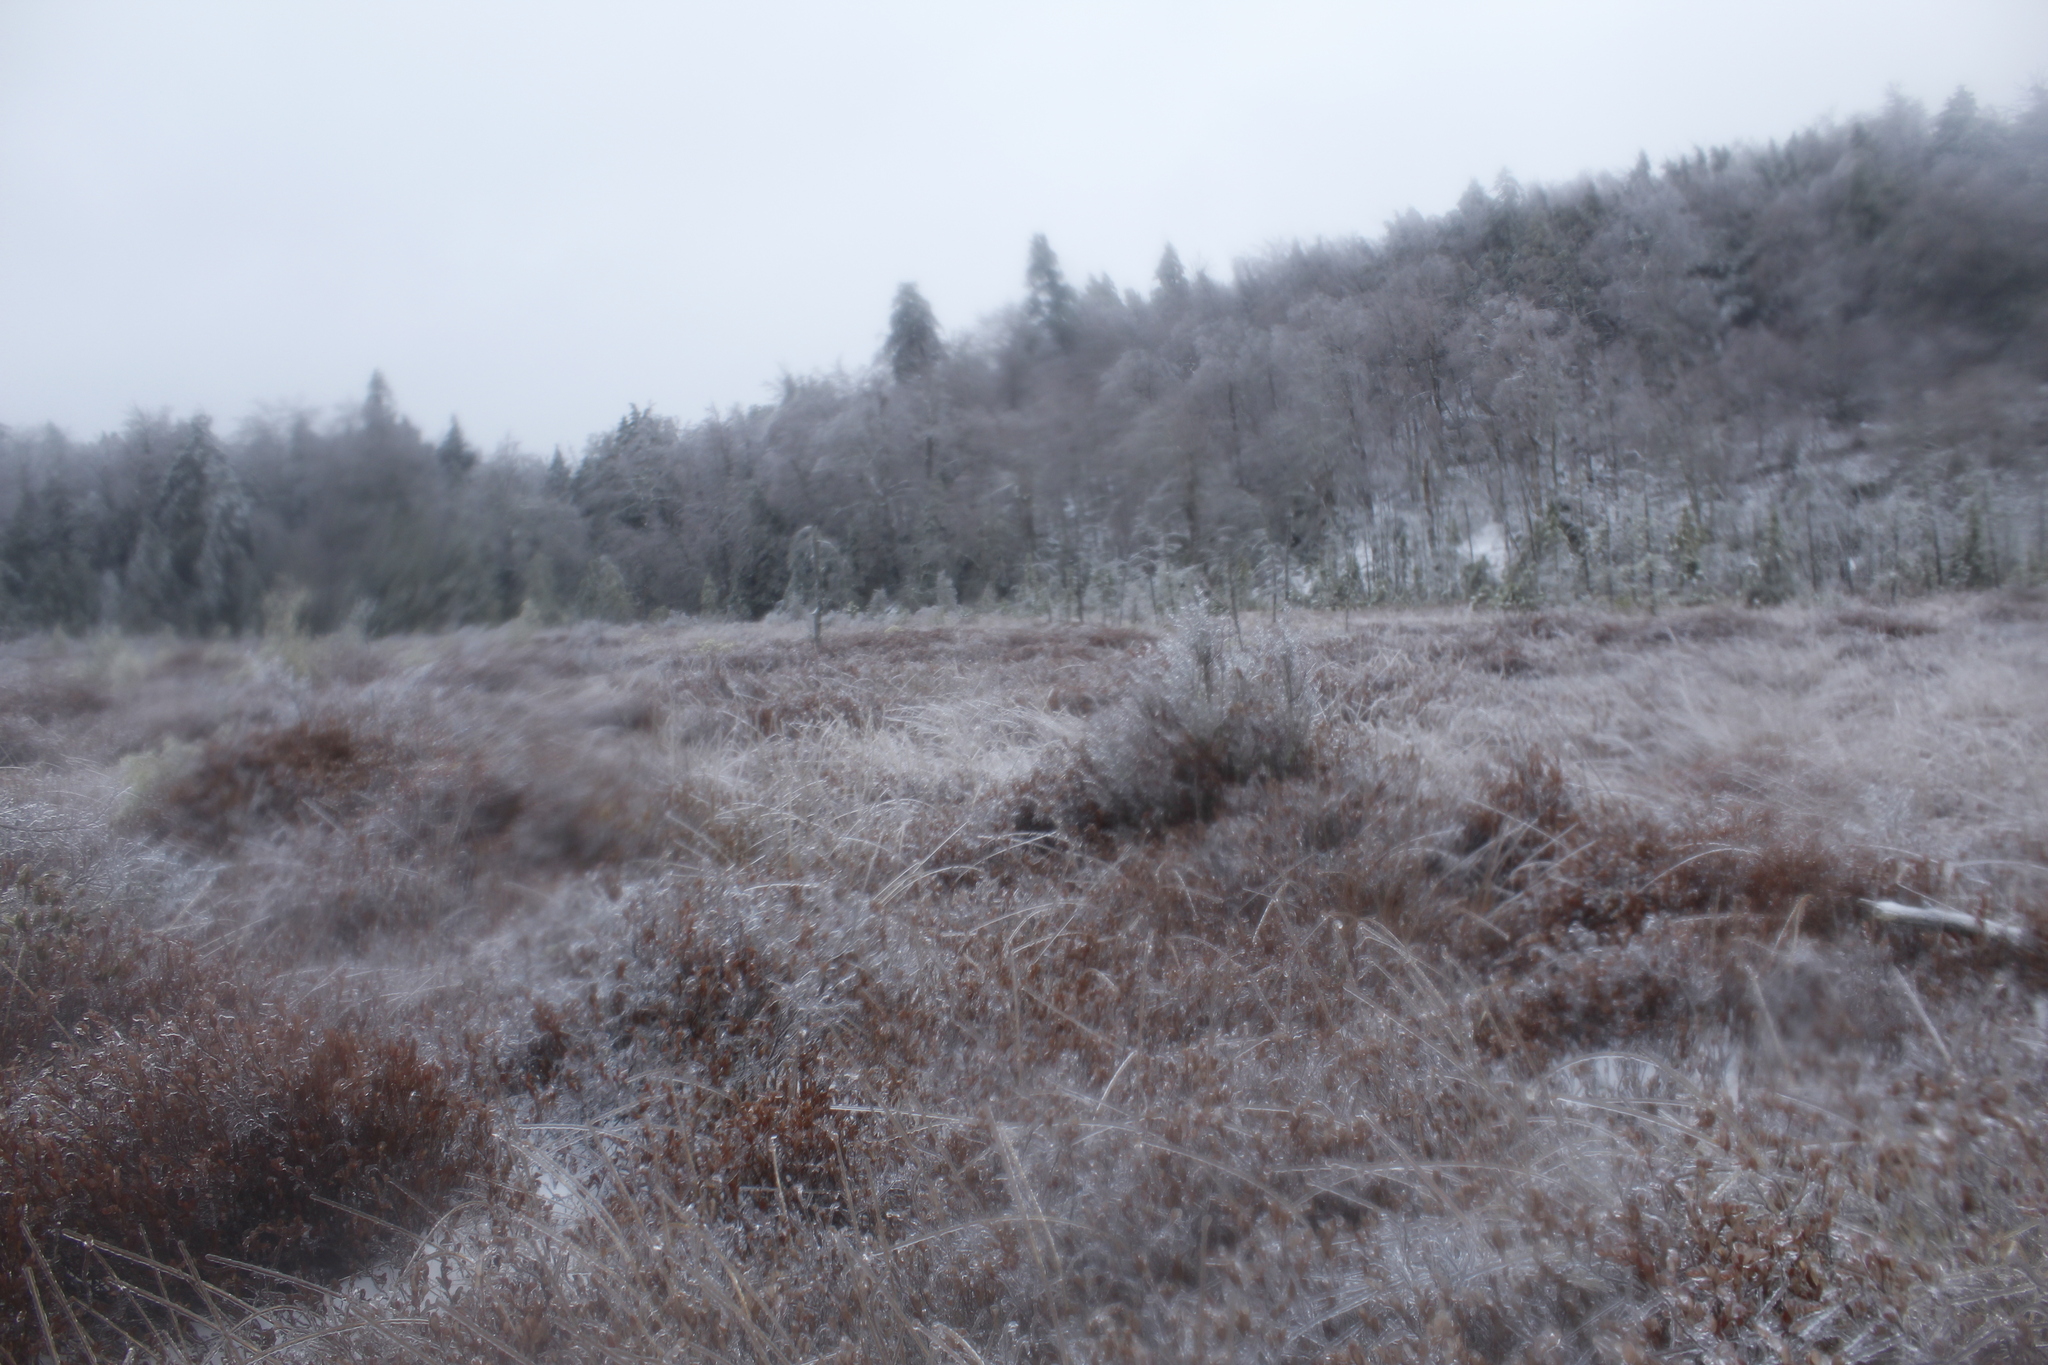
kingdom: Plantae
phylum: Tracheophyta
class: Magnoliopsida
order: Ericales
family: Ericaceae
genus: Chamaedaphne
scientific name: Chamaedaphne calyculata
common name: Leatherleaf
